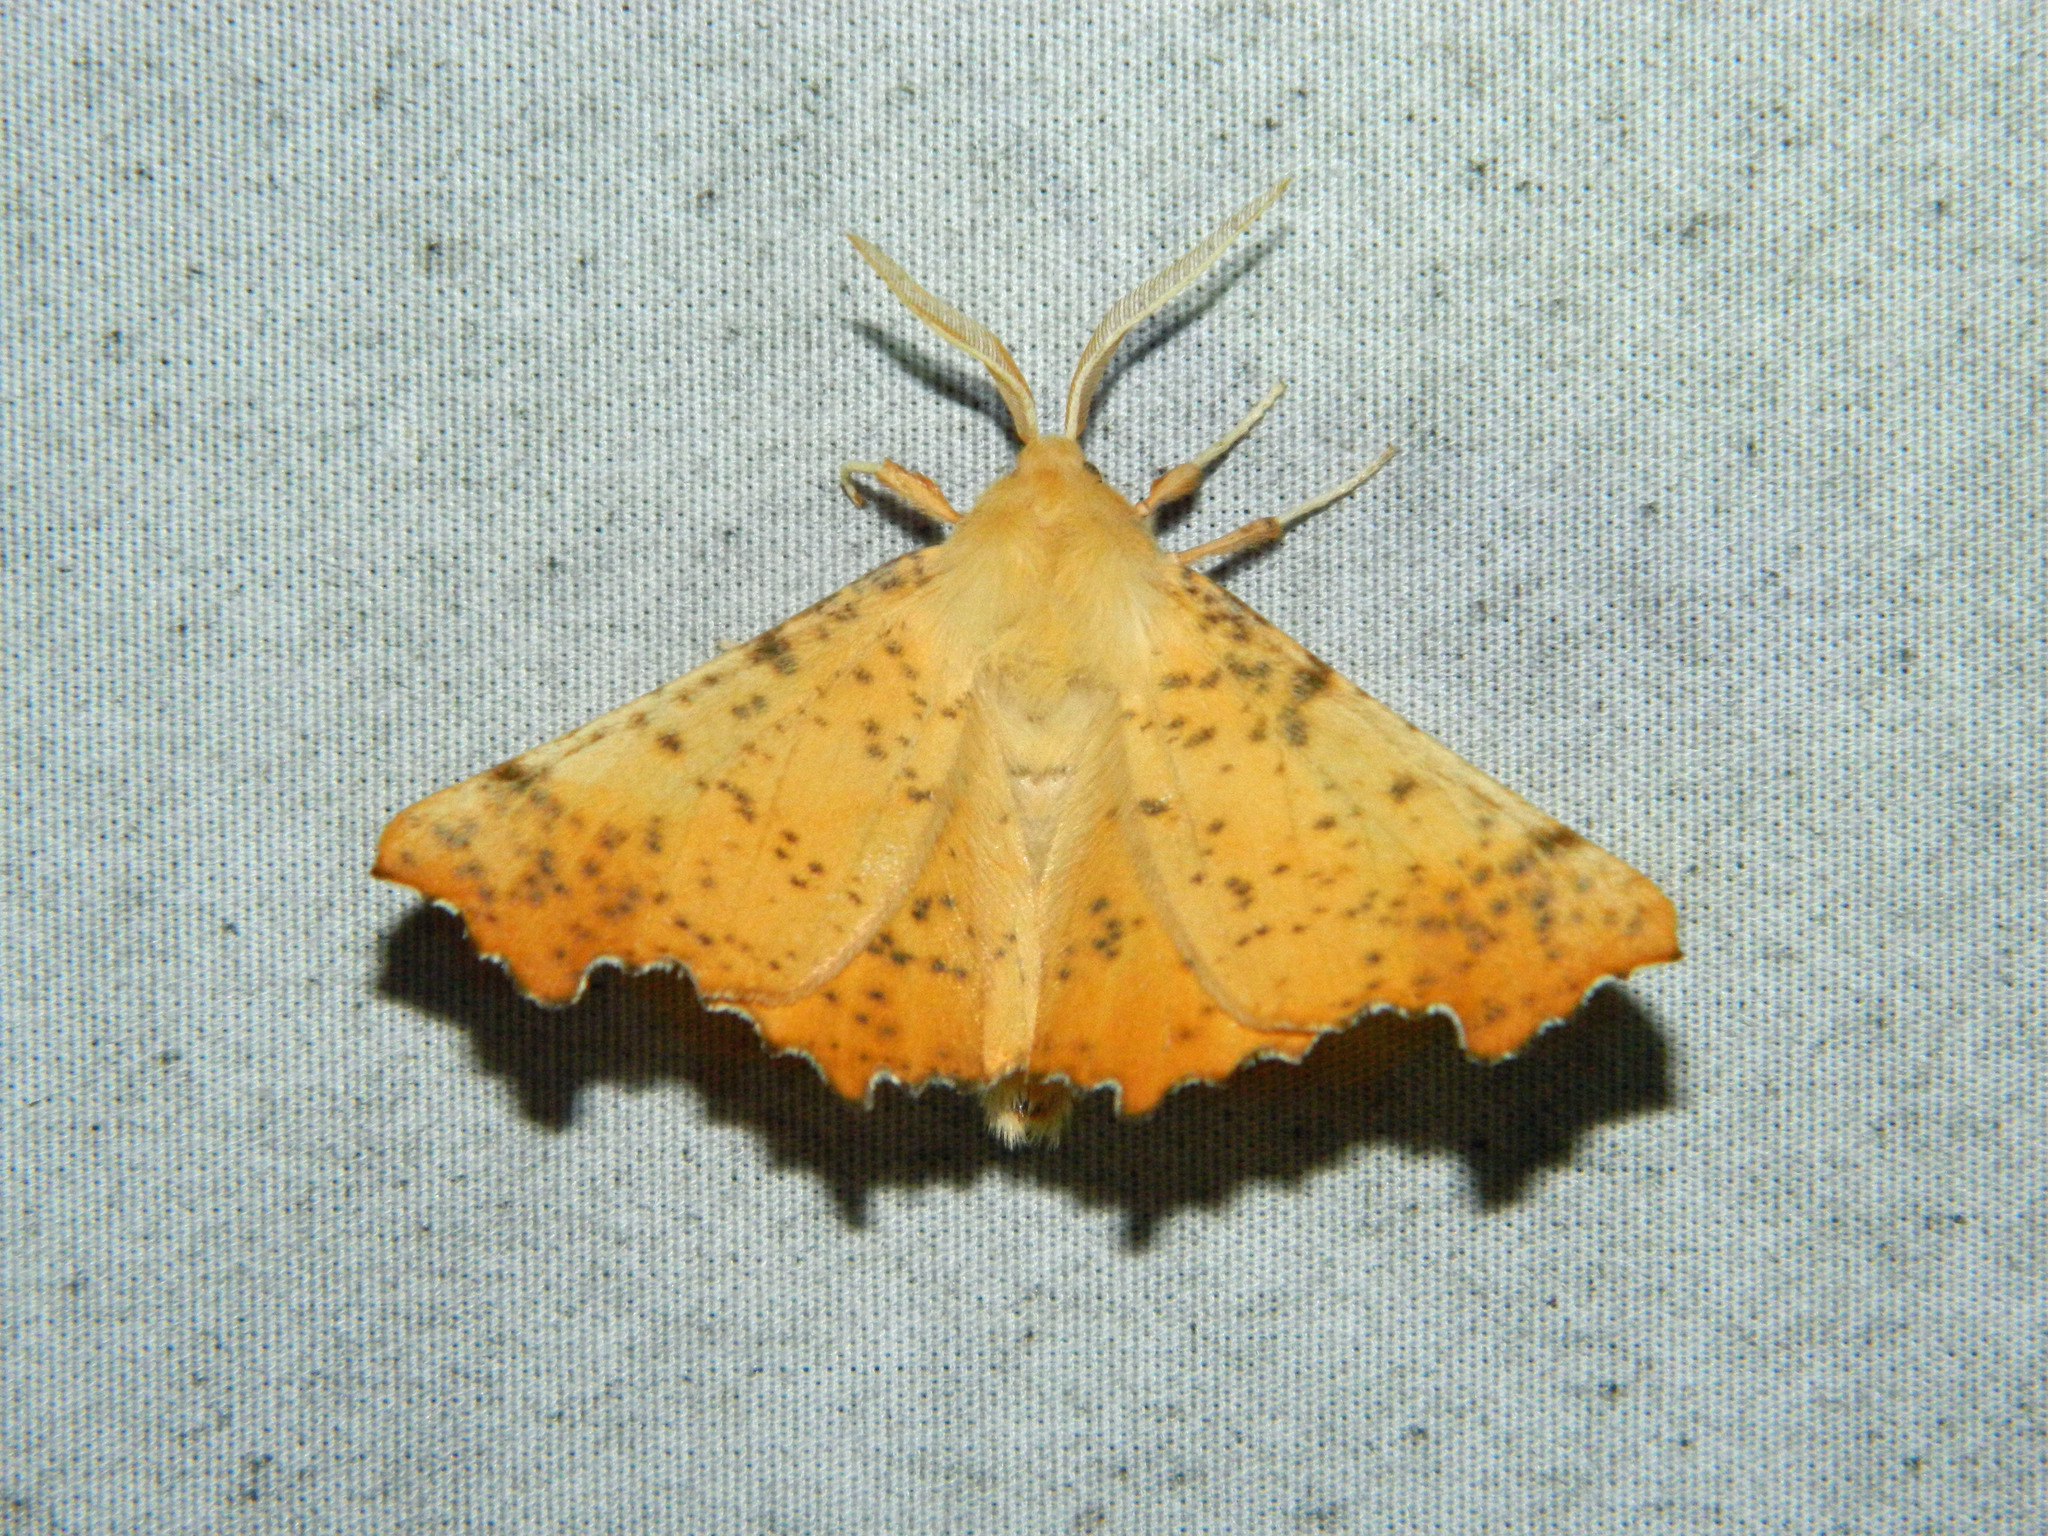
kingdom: Animalia
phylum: Arthropoda
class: Insecta
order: Lepidoptera
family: Geometridae
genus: Ennomos
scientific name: Ennomos magnaria
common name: Maple spanworm
